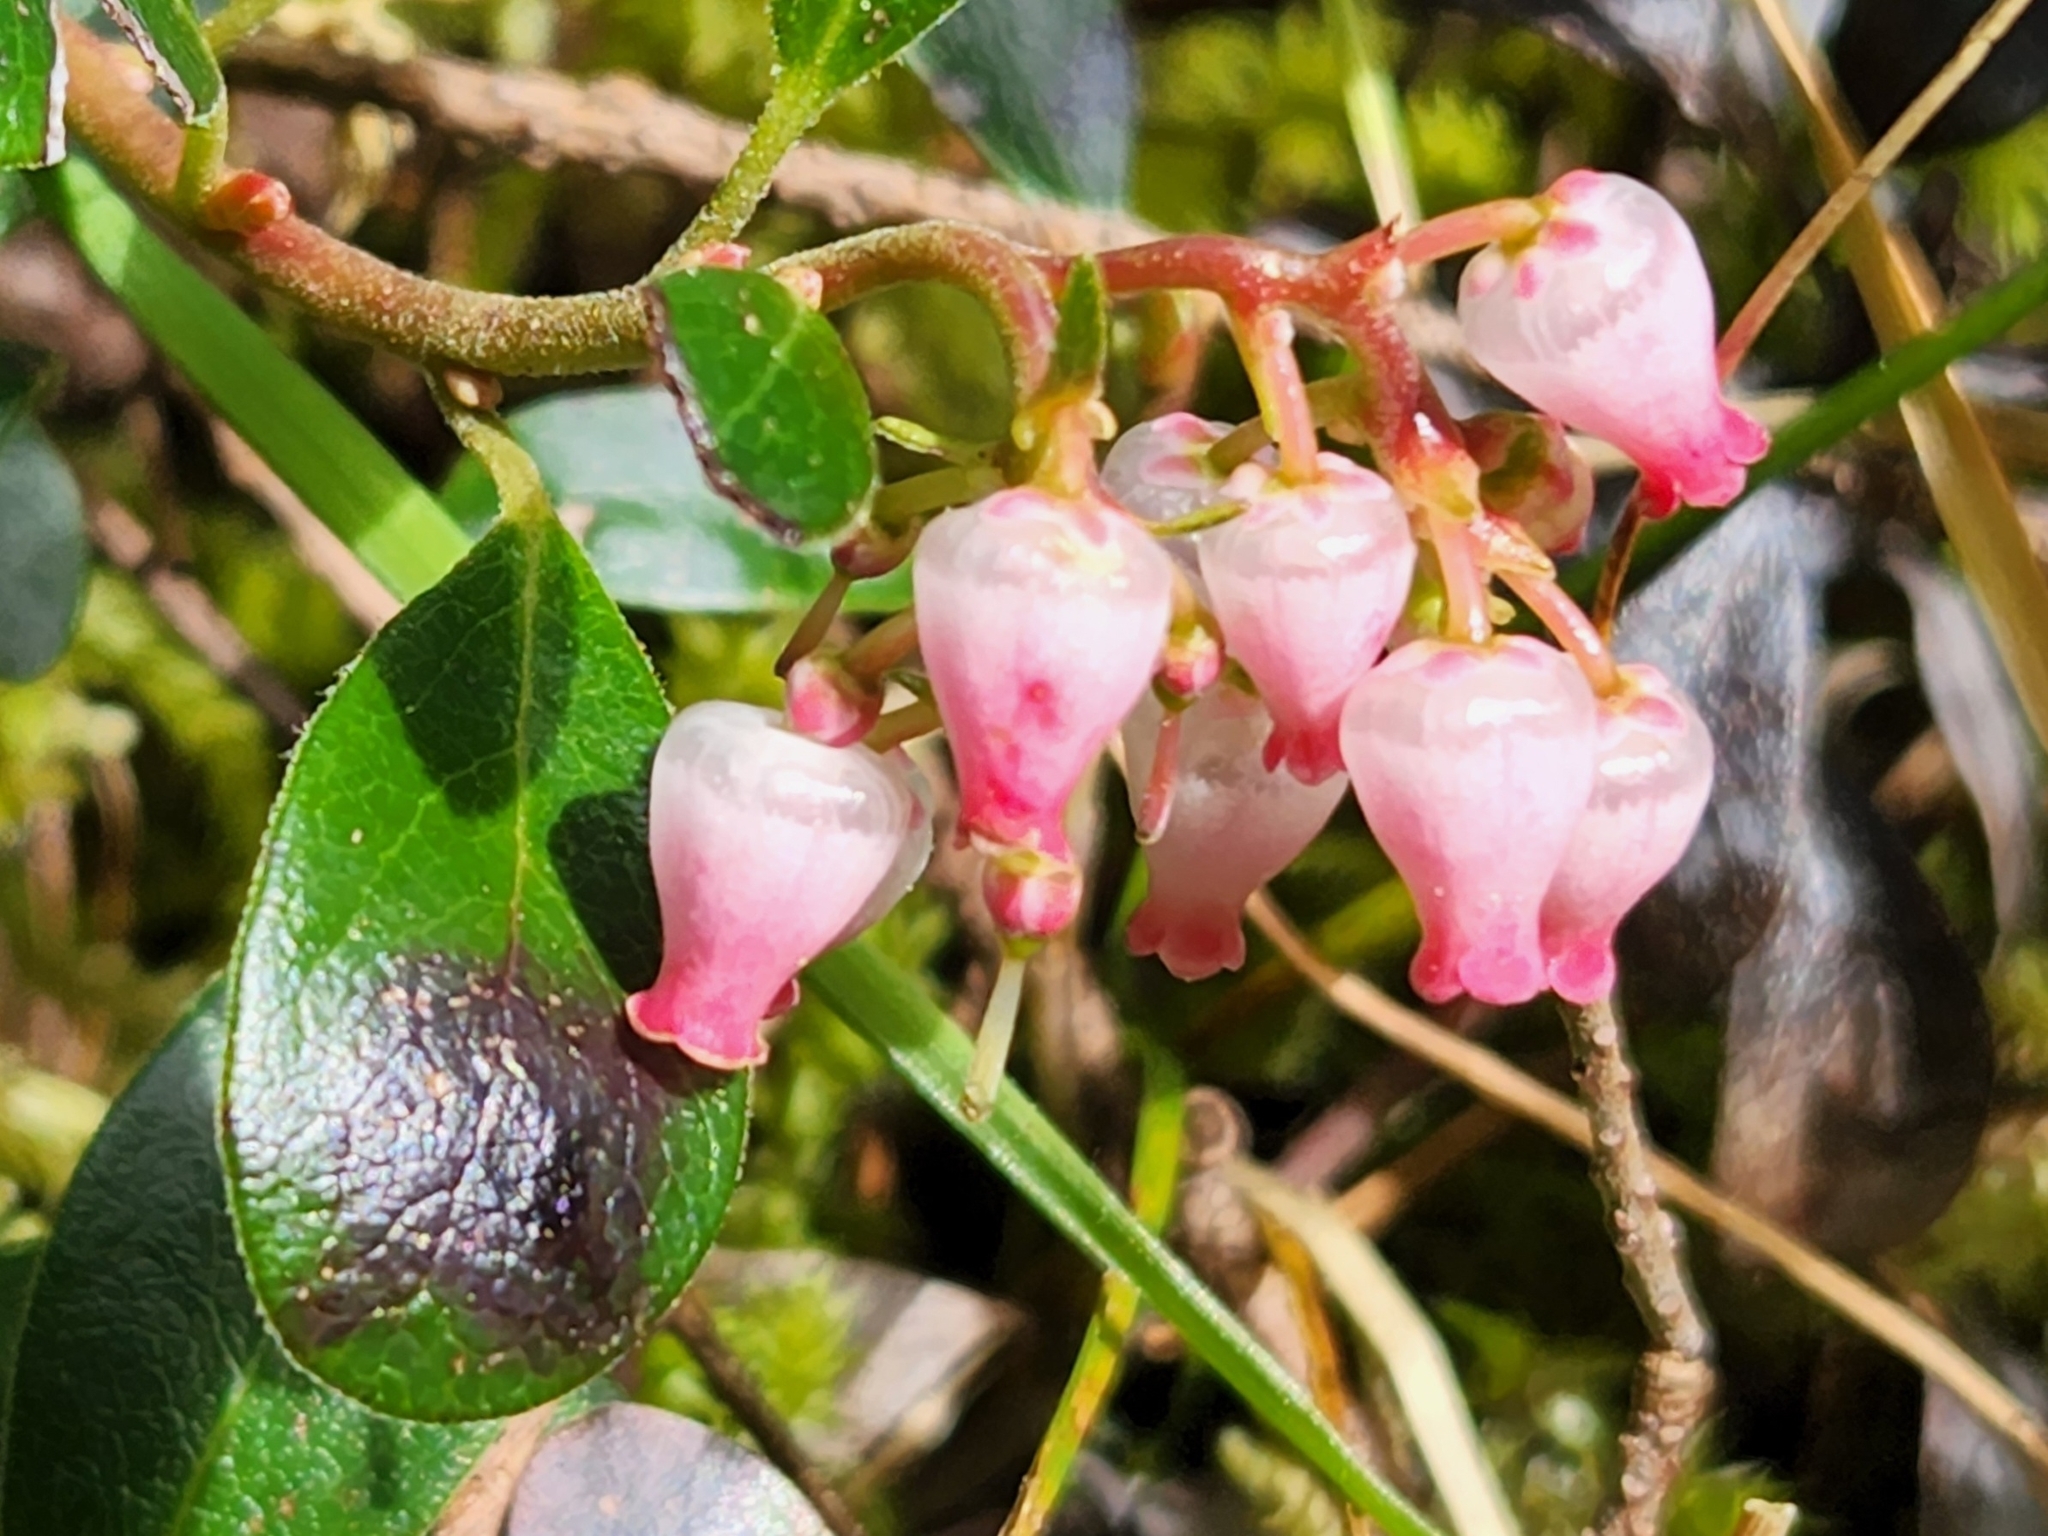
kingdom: Plantae
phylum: Tracheophyta
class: Magnoliopsida
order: Ericales
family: Ericaceae
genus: Arctostaphylos
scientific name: Arctostaphylos uva-ursi
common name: Bearberry
